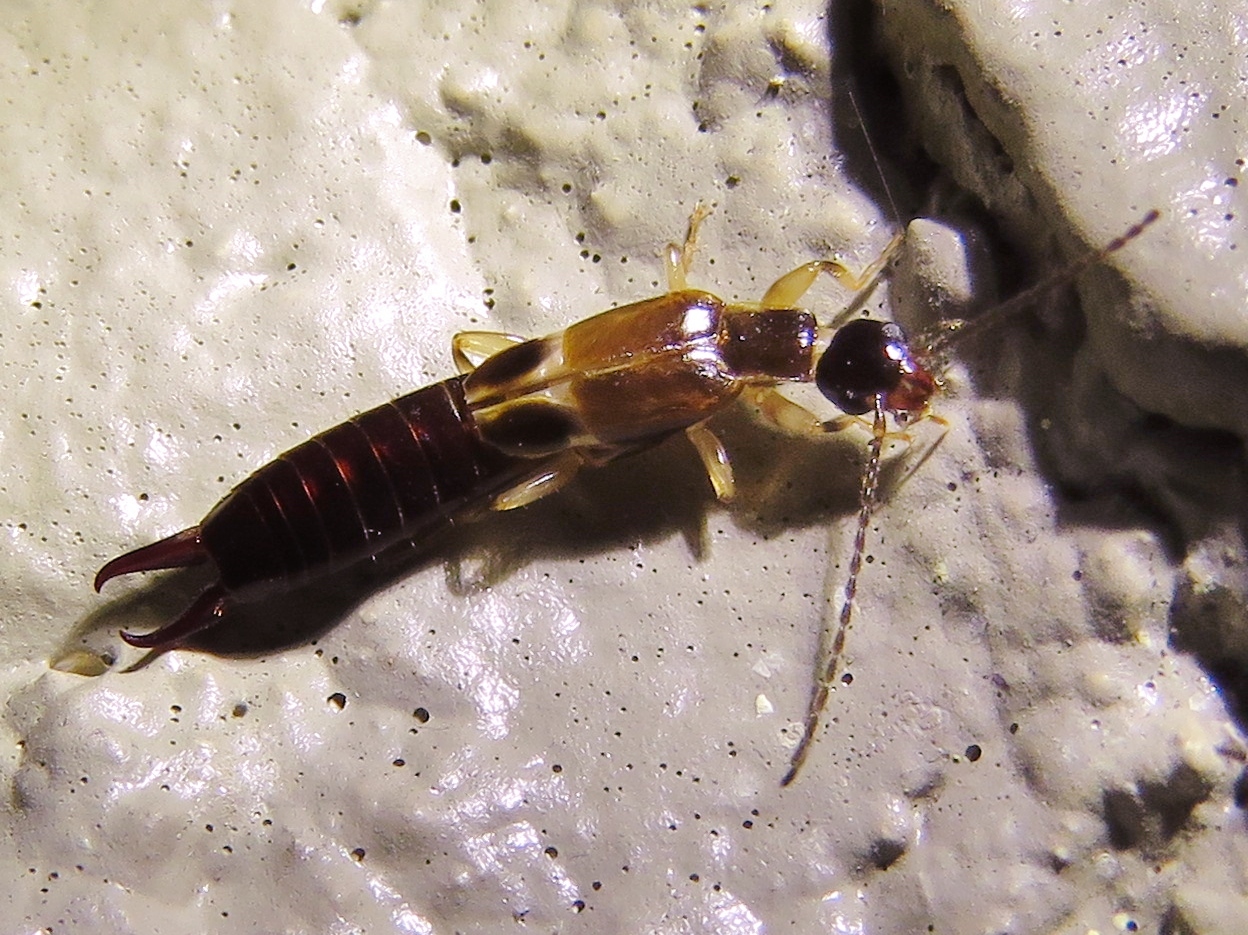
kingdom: Animalia
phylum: Arthropoda
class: Insecta
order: Dermaptera
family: Anisolabididae
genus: Euborellia
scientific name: Euborellia cincticollis
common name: African earwig
